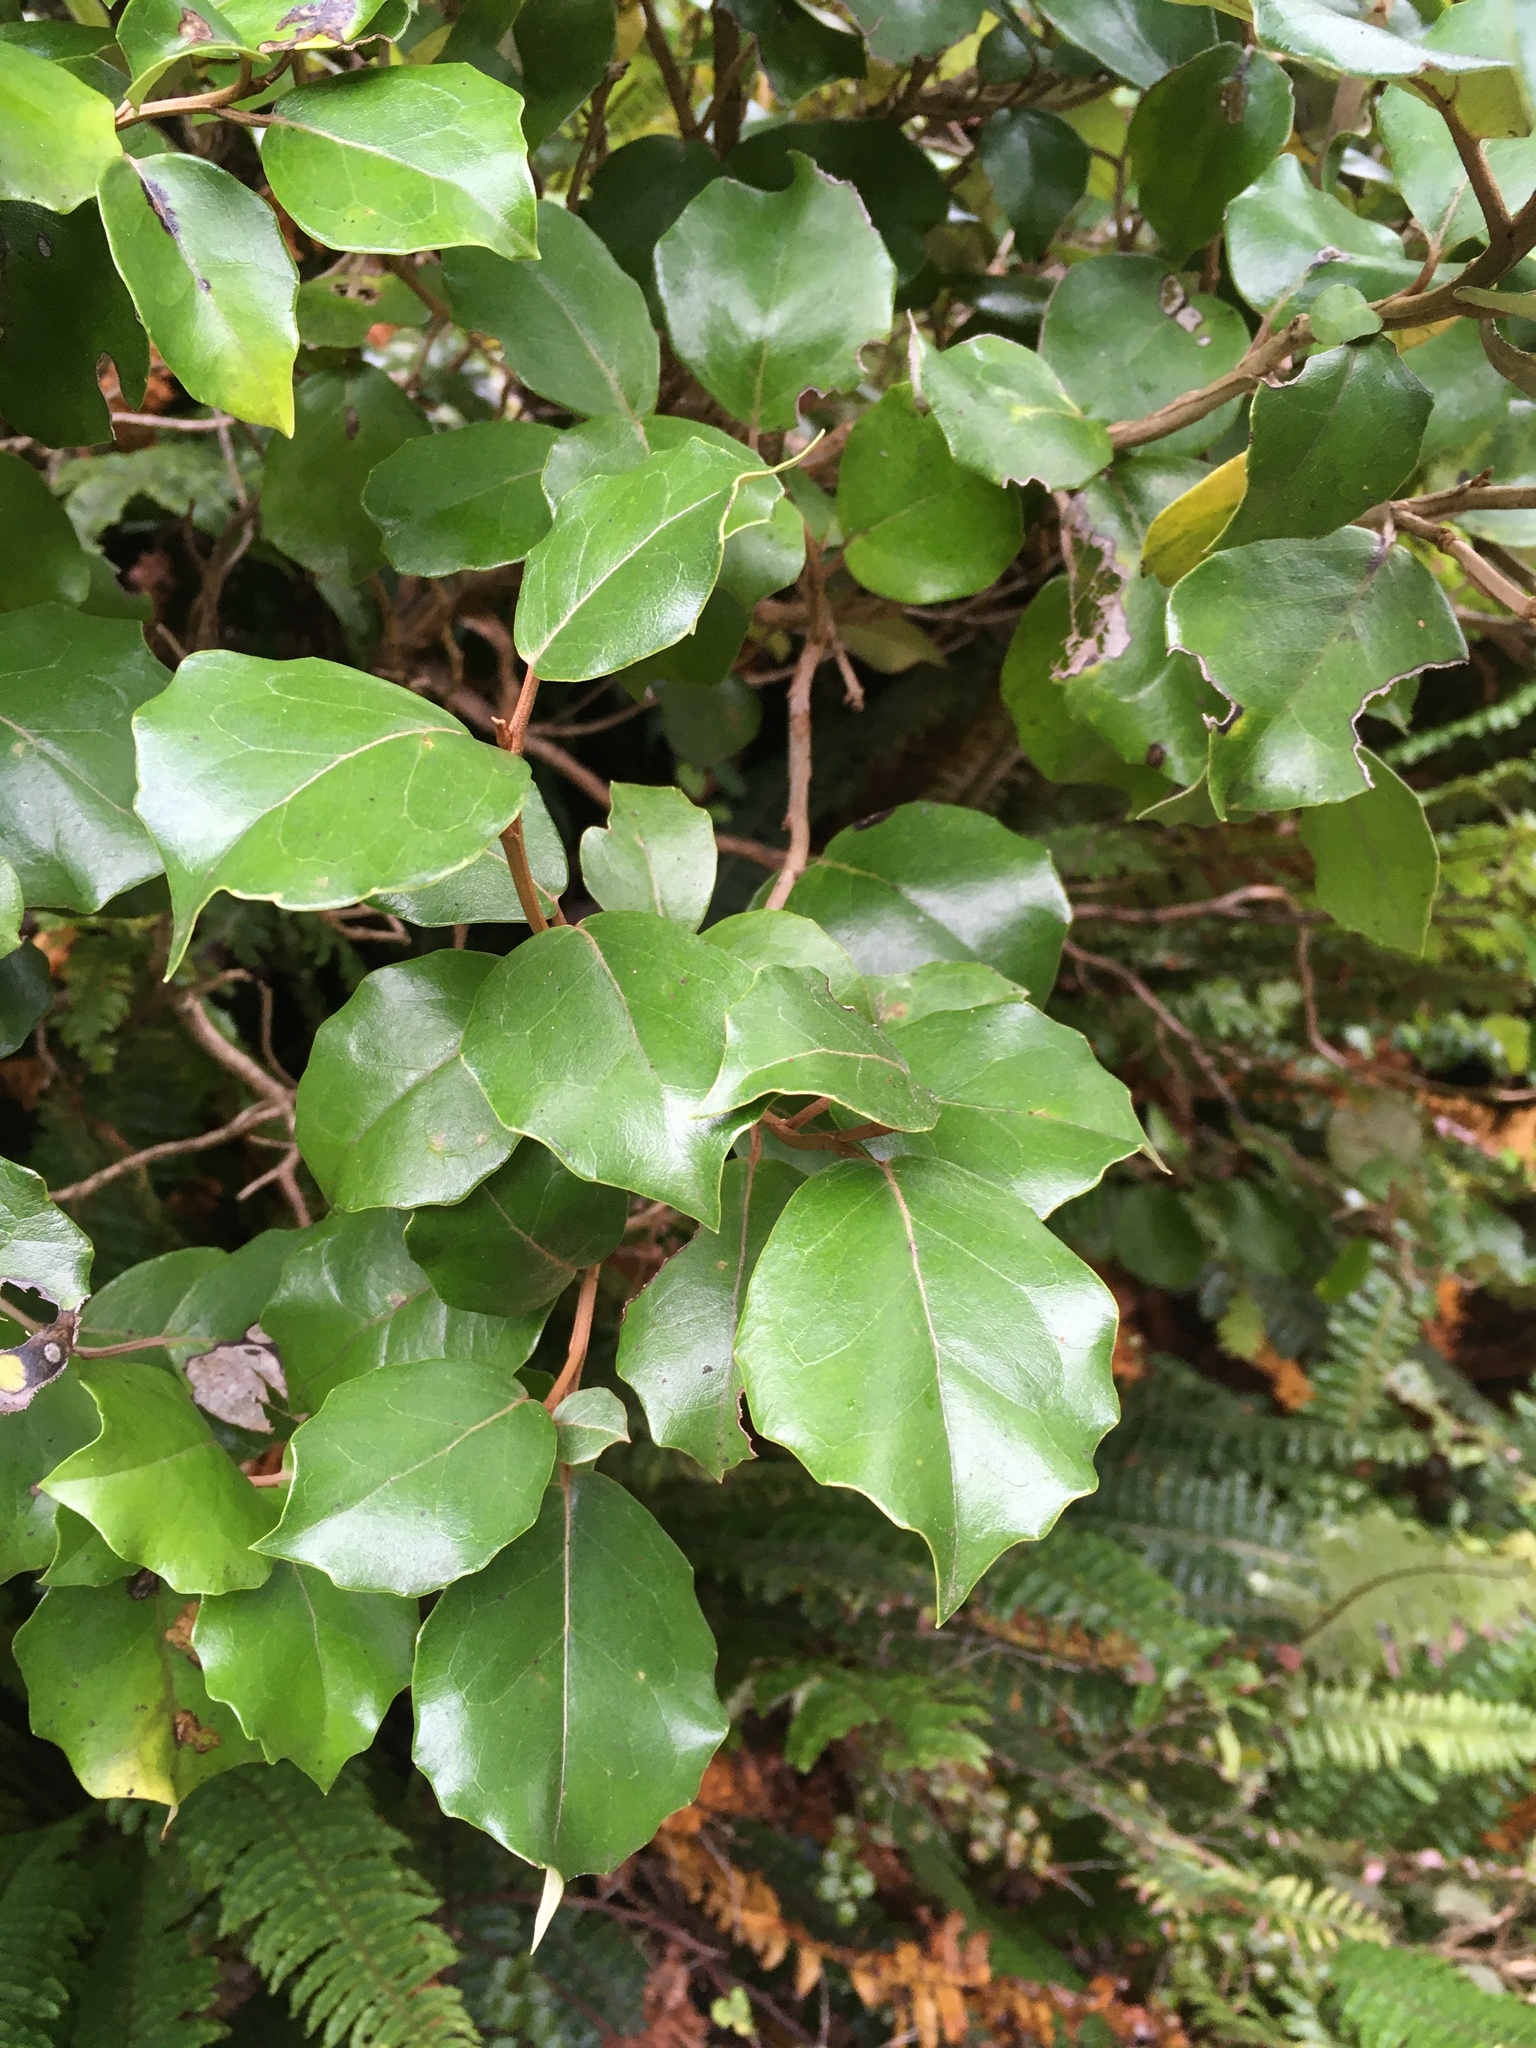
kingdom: Plantae
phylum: Tracheophyta
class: Magnoliopsida
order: Asterales
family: Asteraceae
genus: Olearia
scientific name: Olearia arborescens
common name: Glossy tree daisy
